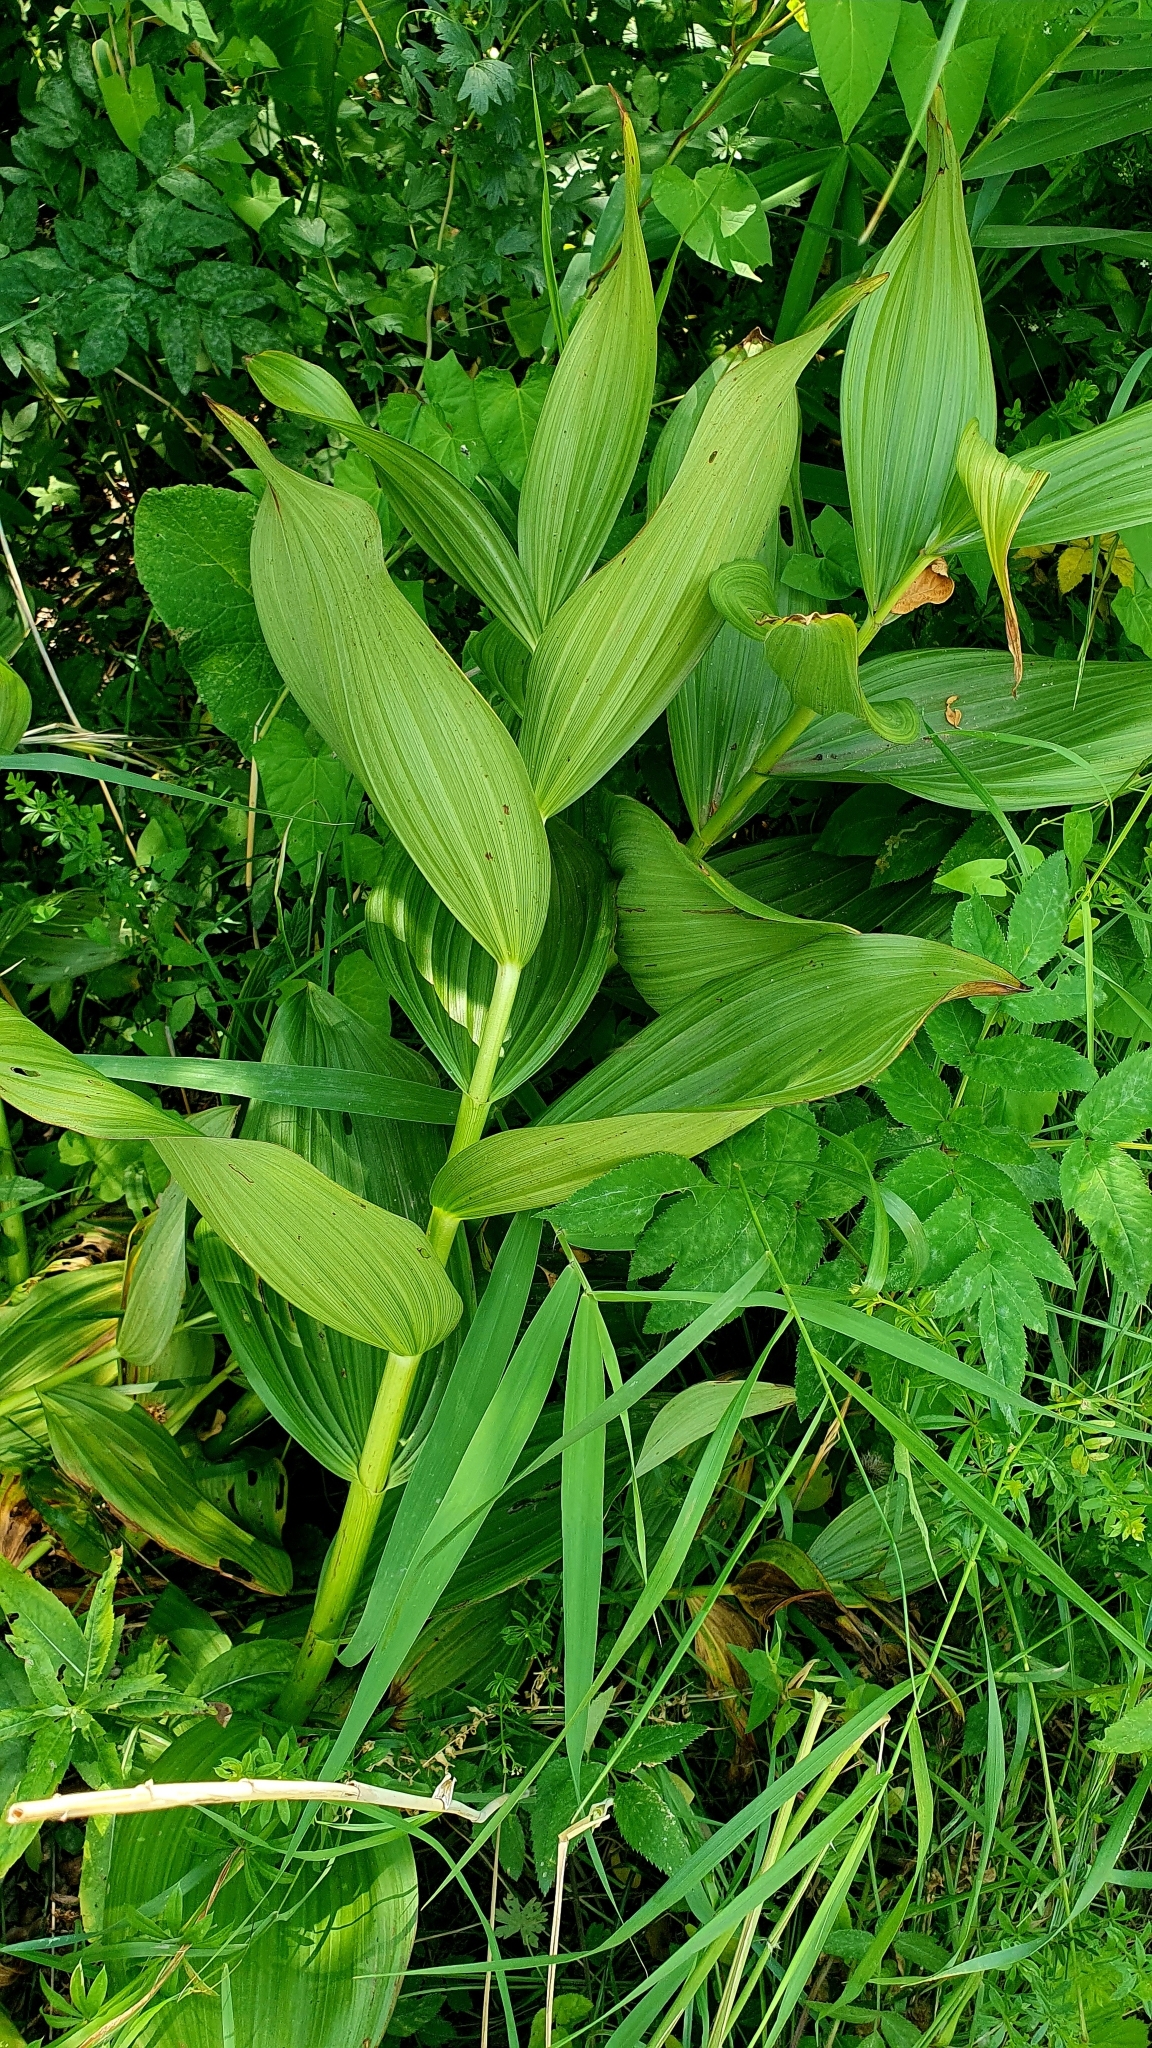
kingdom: Plantae
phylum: Tracheophyta
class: Liliopsida
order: Liliales
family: Melanthiaceae
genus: Veratrum
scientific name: Veratrum lobelianum
